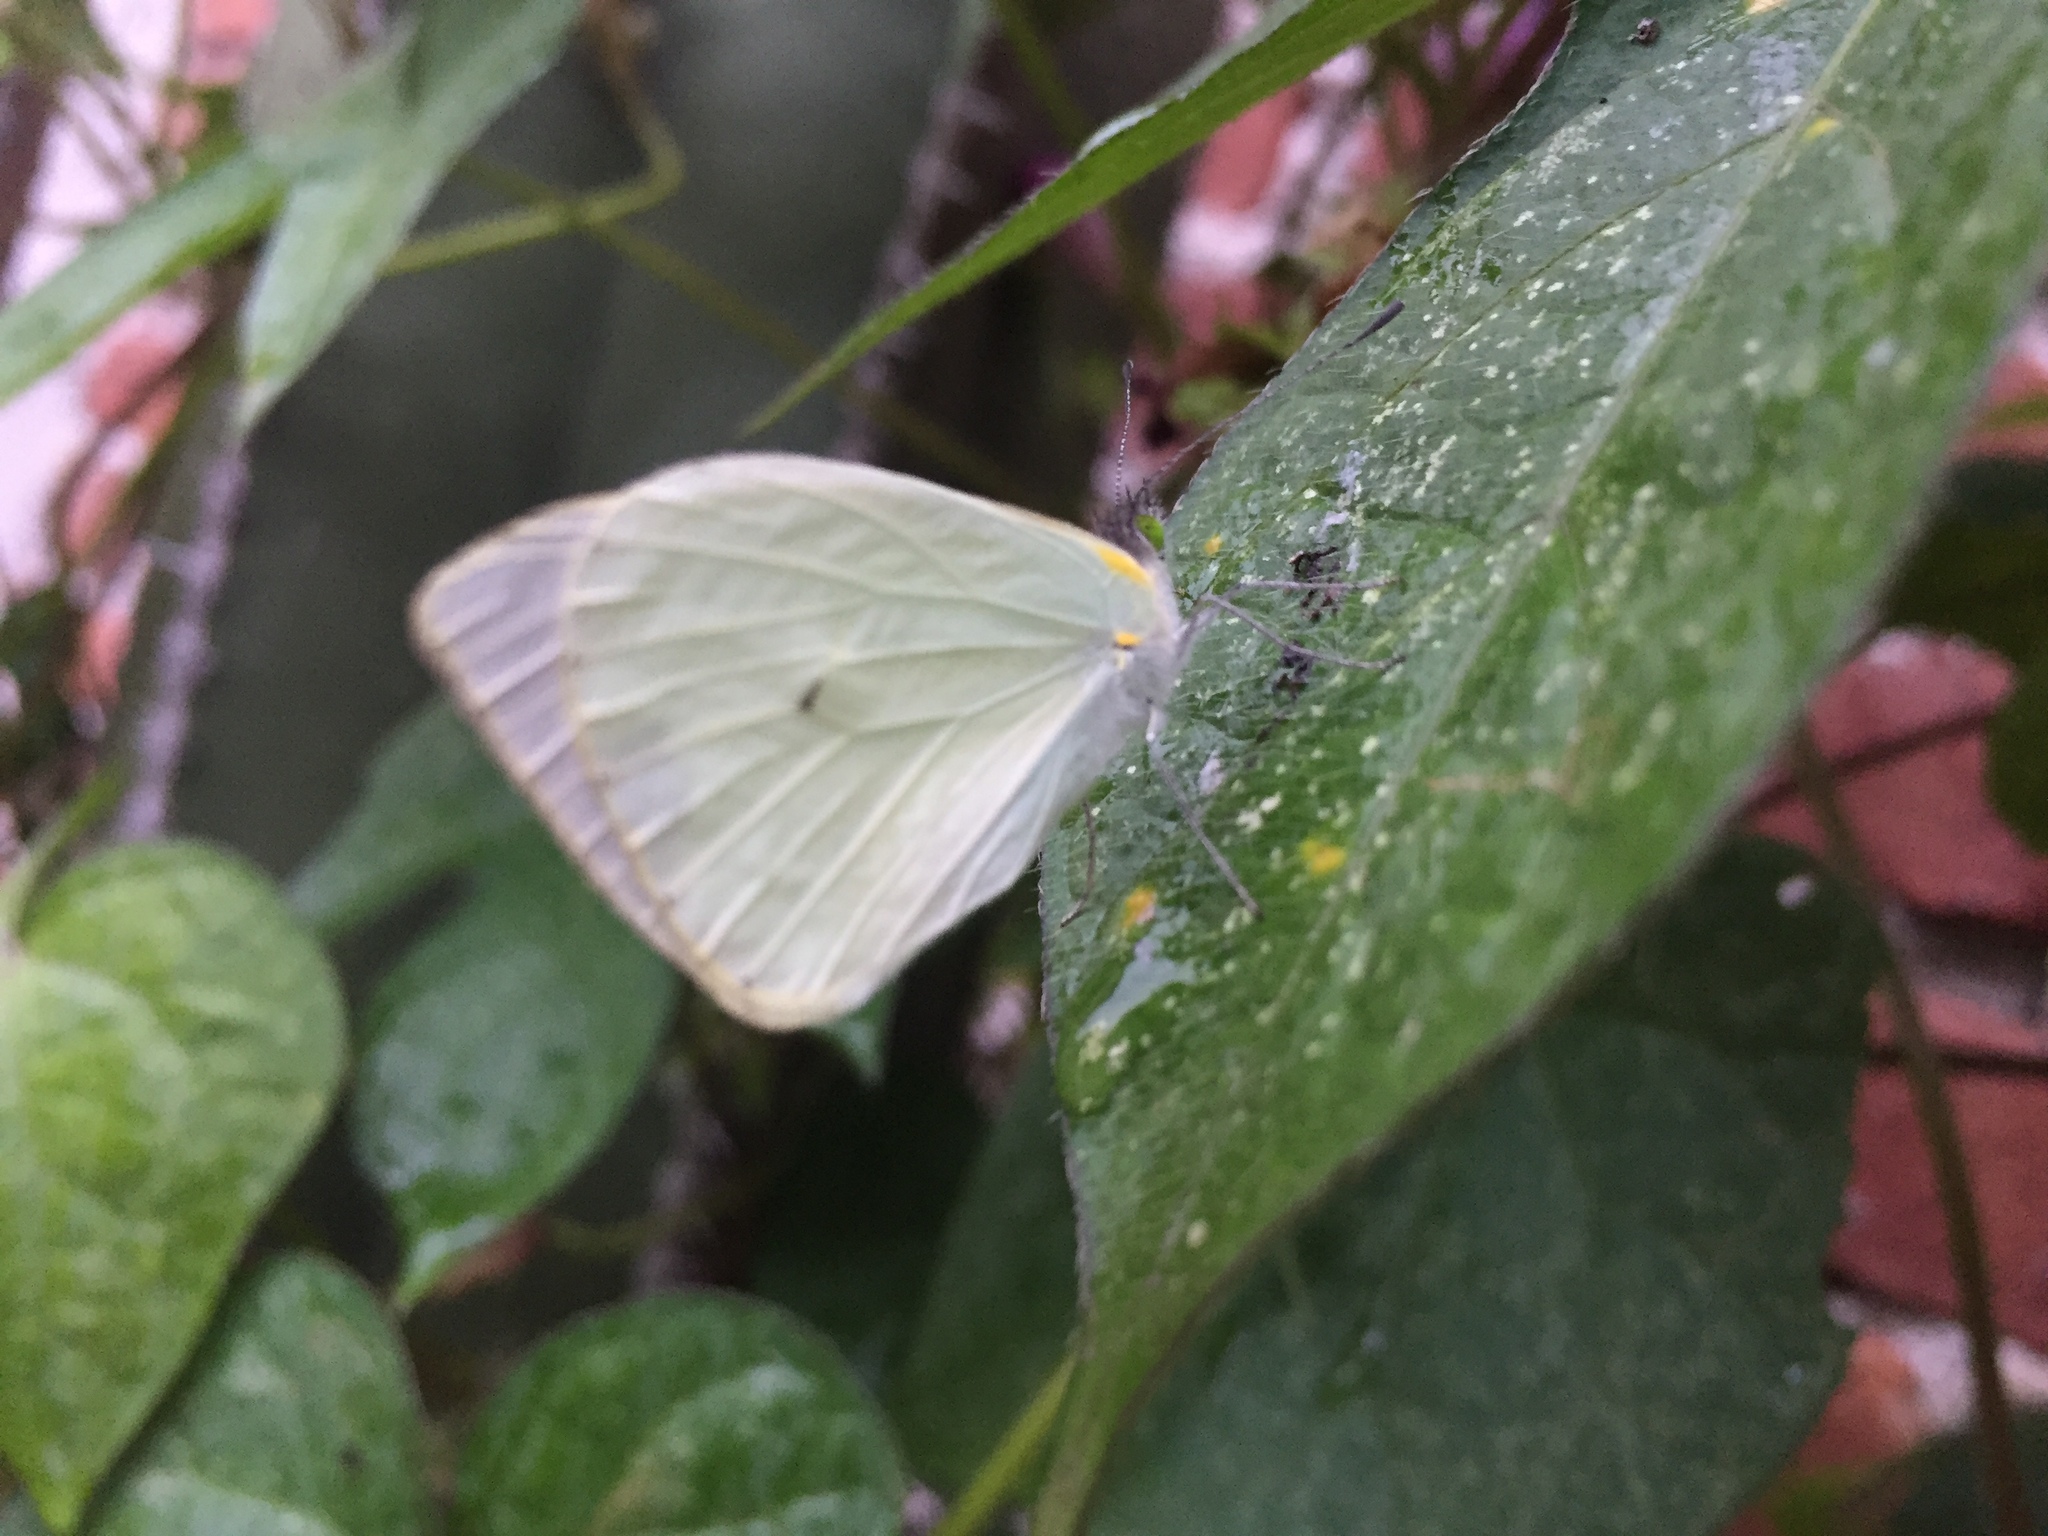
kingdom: Animalia
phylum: Arthropoda
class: Insecta
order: Lepidoptera
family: Pieridae
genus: Leptophobia
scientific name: Leptophobia aripa
